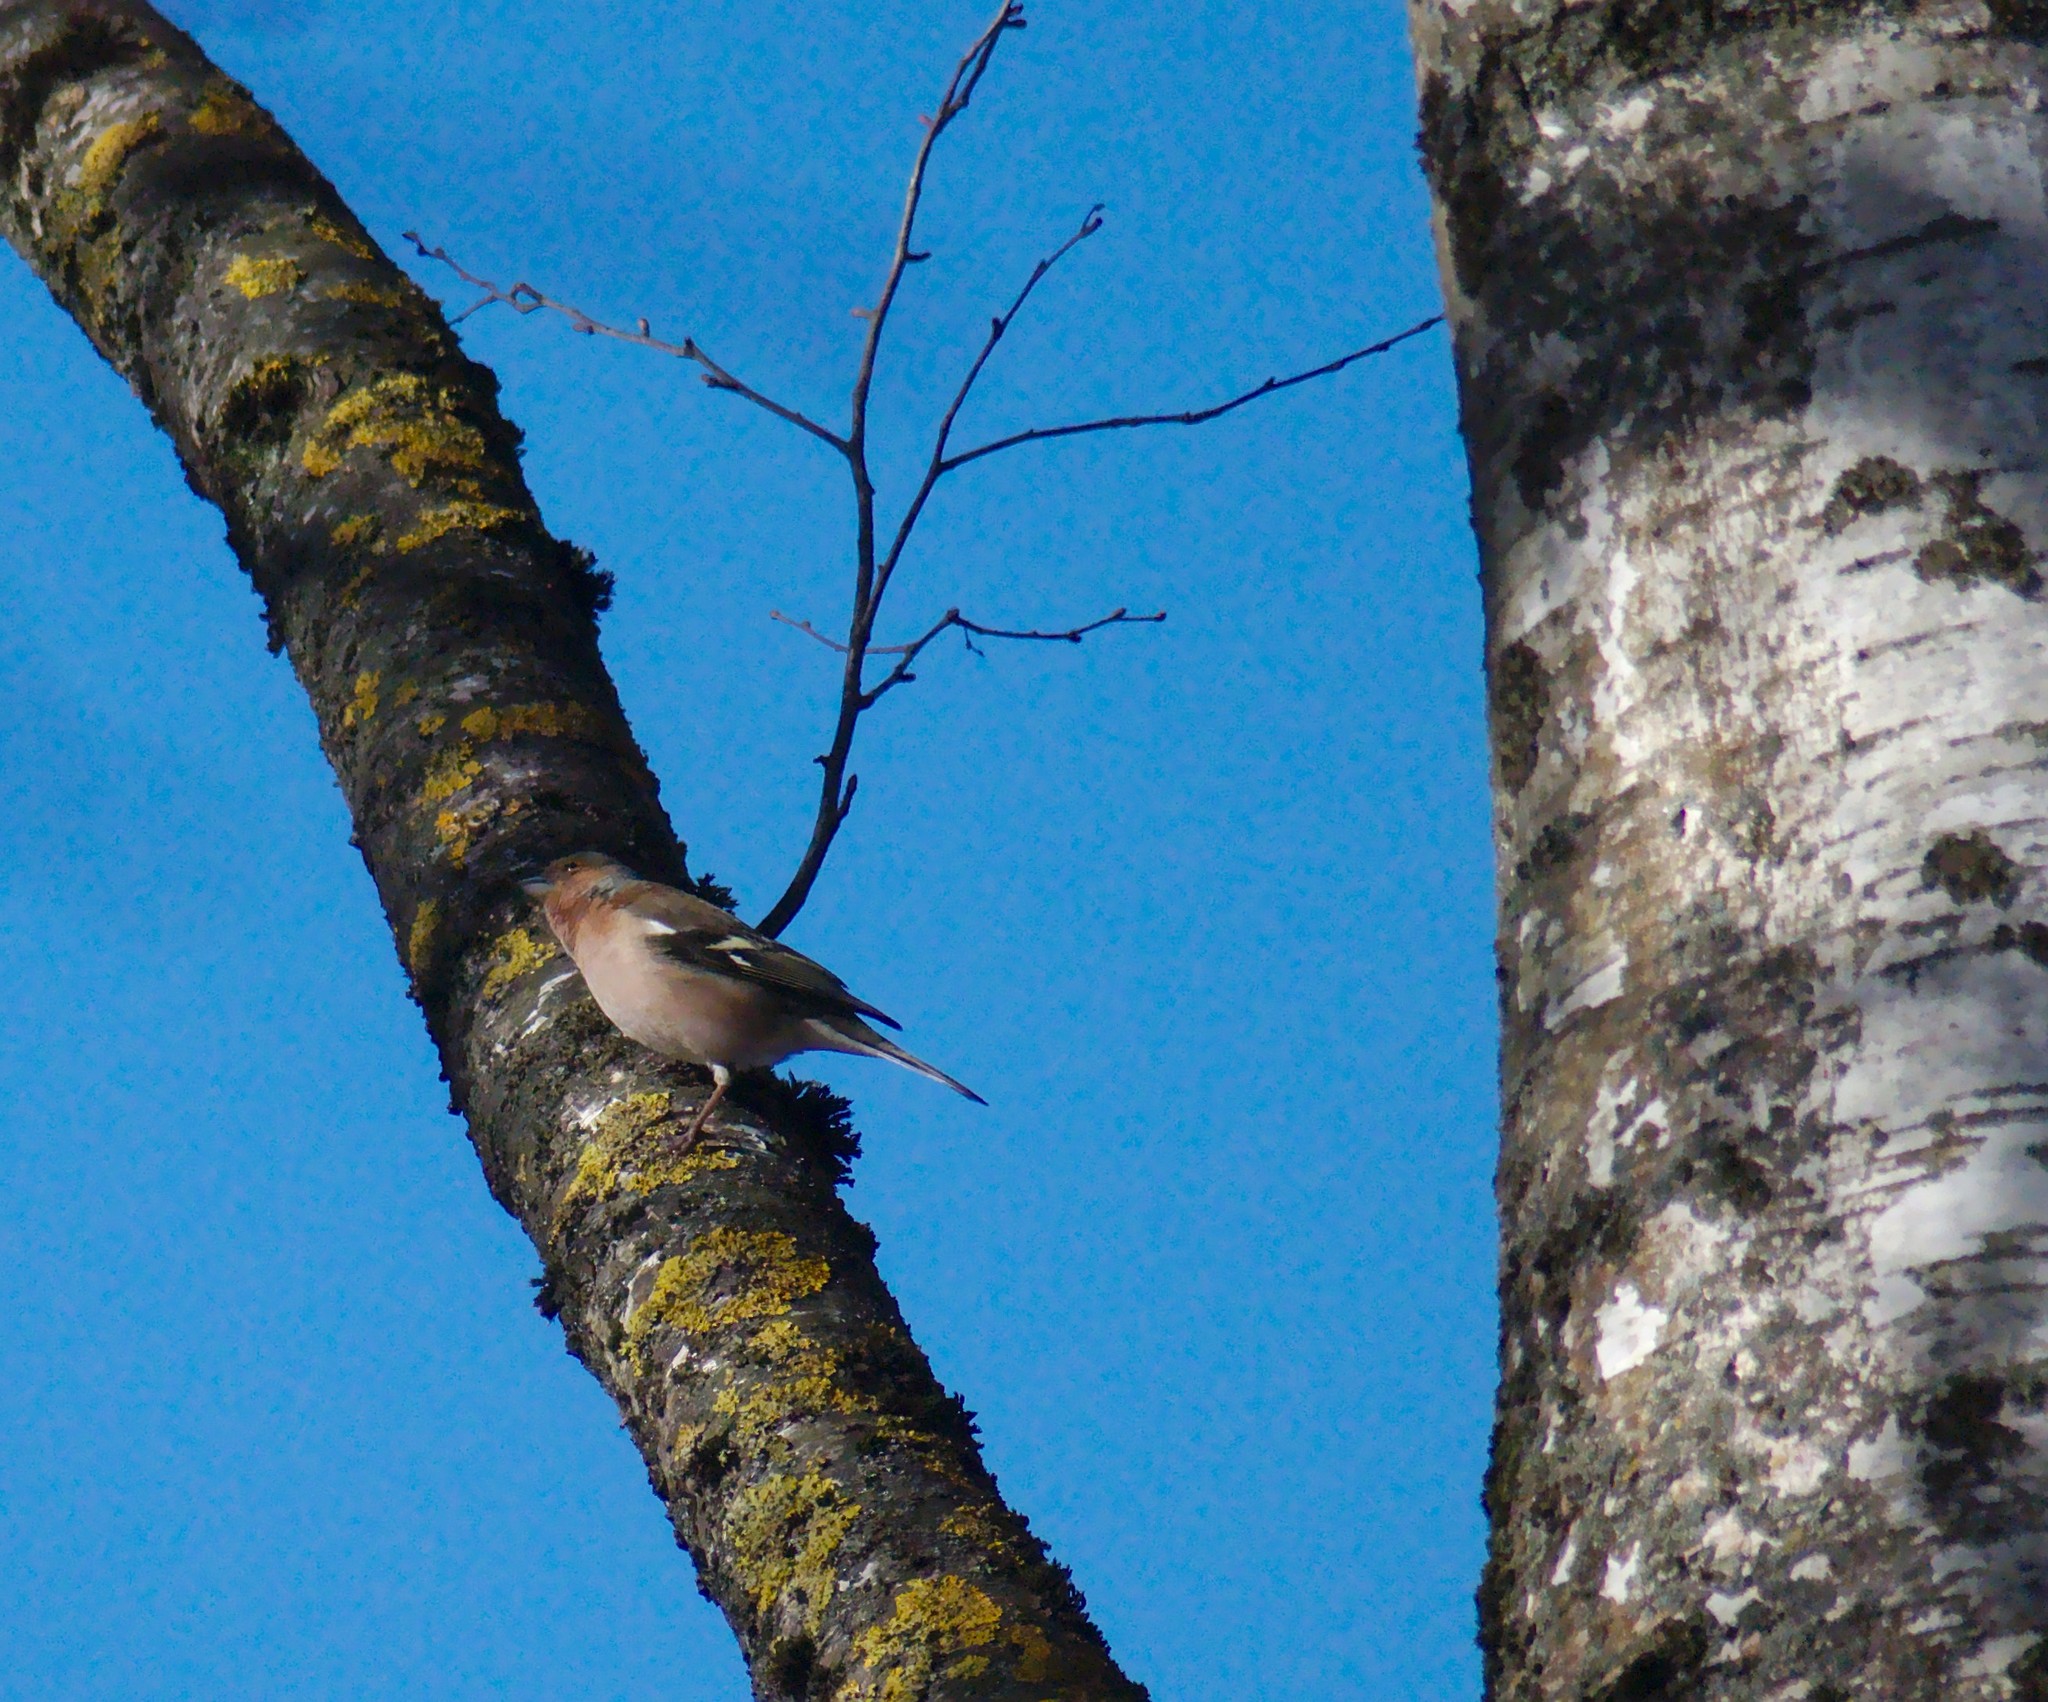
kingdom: Animalia
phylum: Chordata
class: Aves
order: Passeriformes
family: Fringillidae
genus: Fringilla
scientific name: Fringilla coelebs
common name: Common chaffinch
